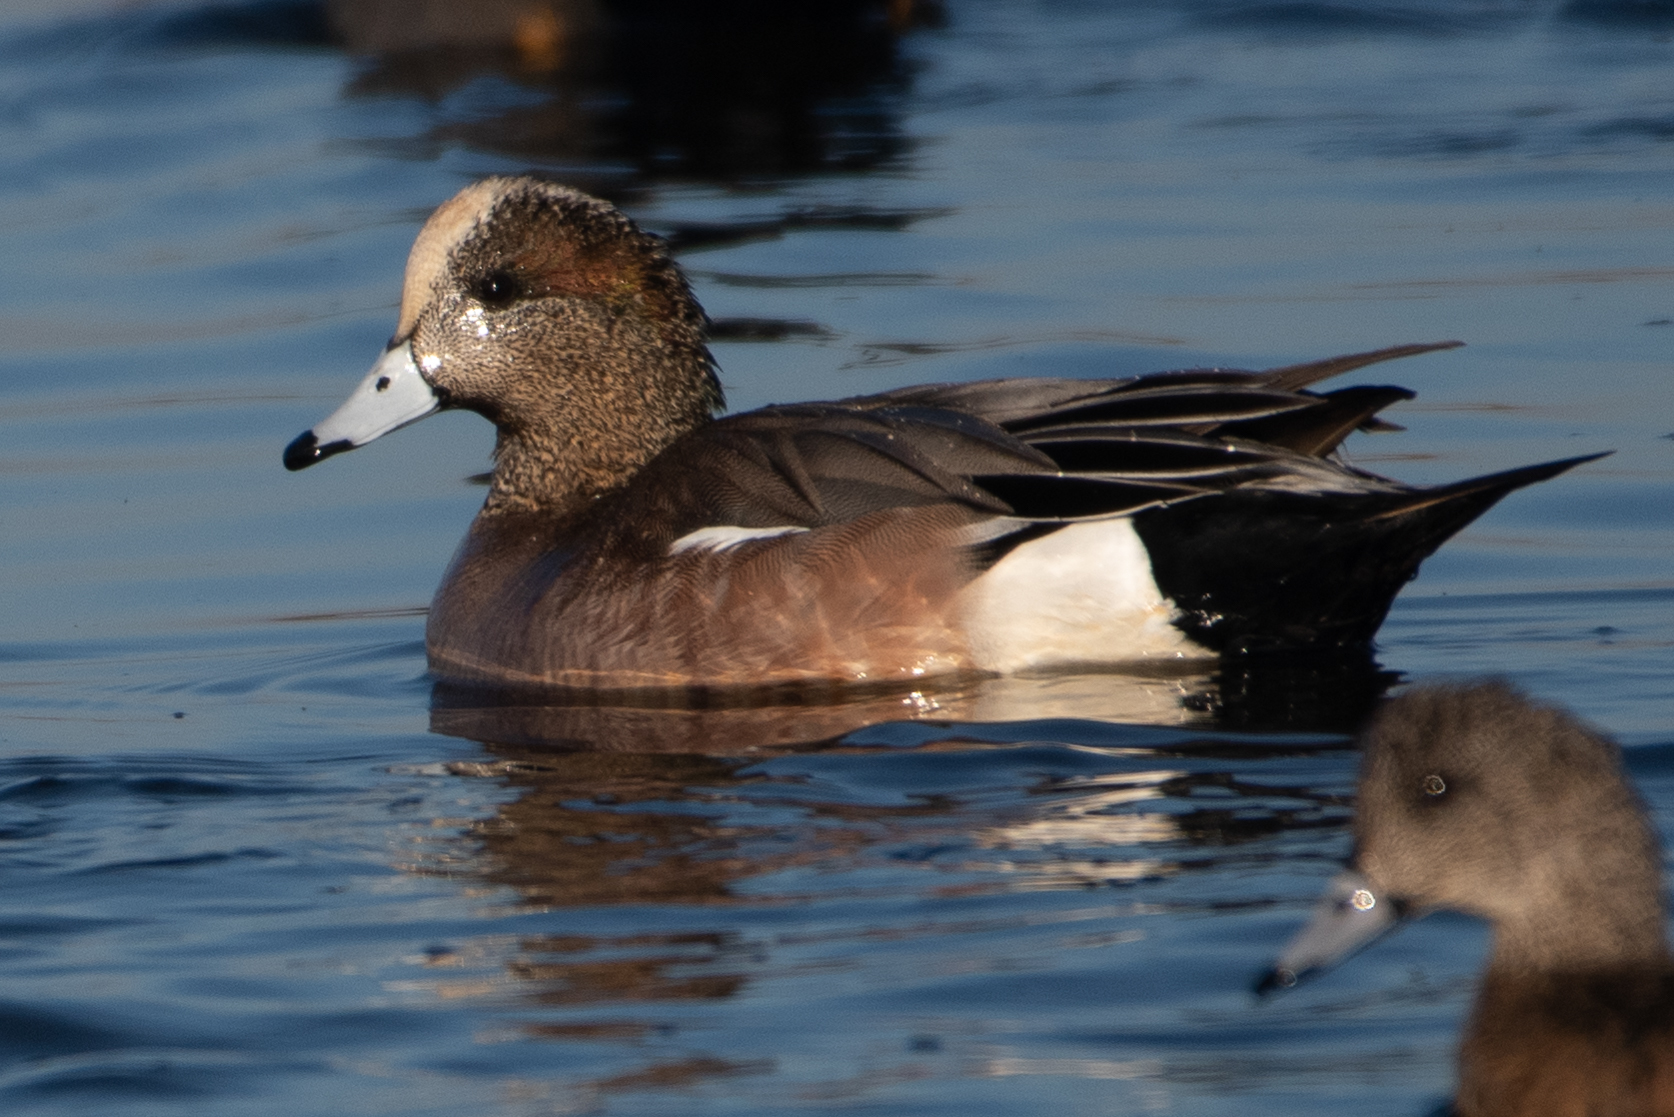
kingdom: Animalia
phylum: Chordata
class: Aves
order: Anseriformes
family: Anatidae
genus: Mareca
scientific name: Mareca americana
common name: American wigeon
